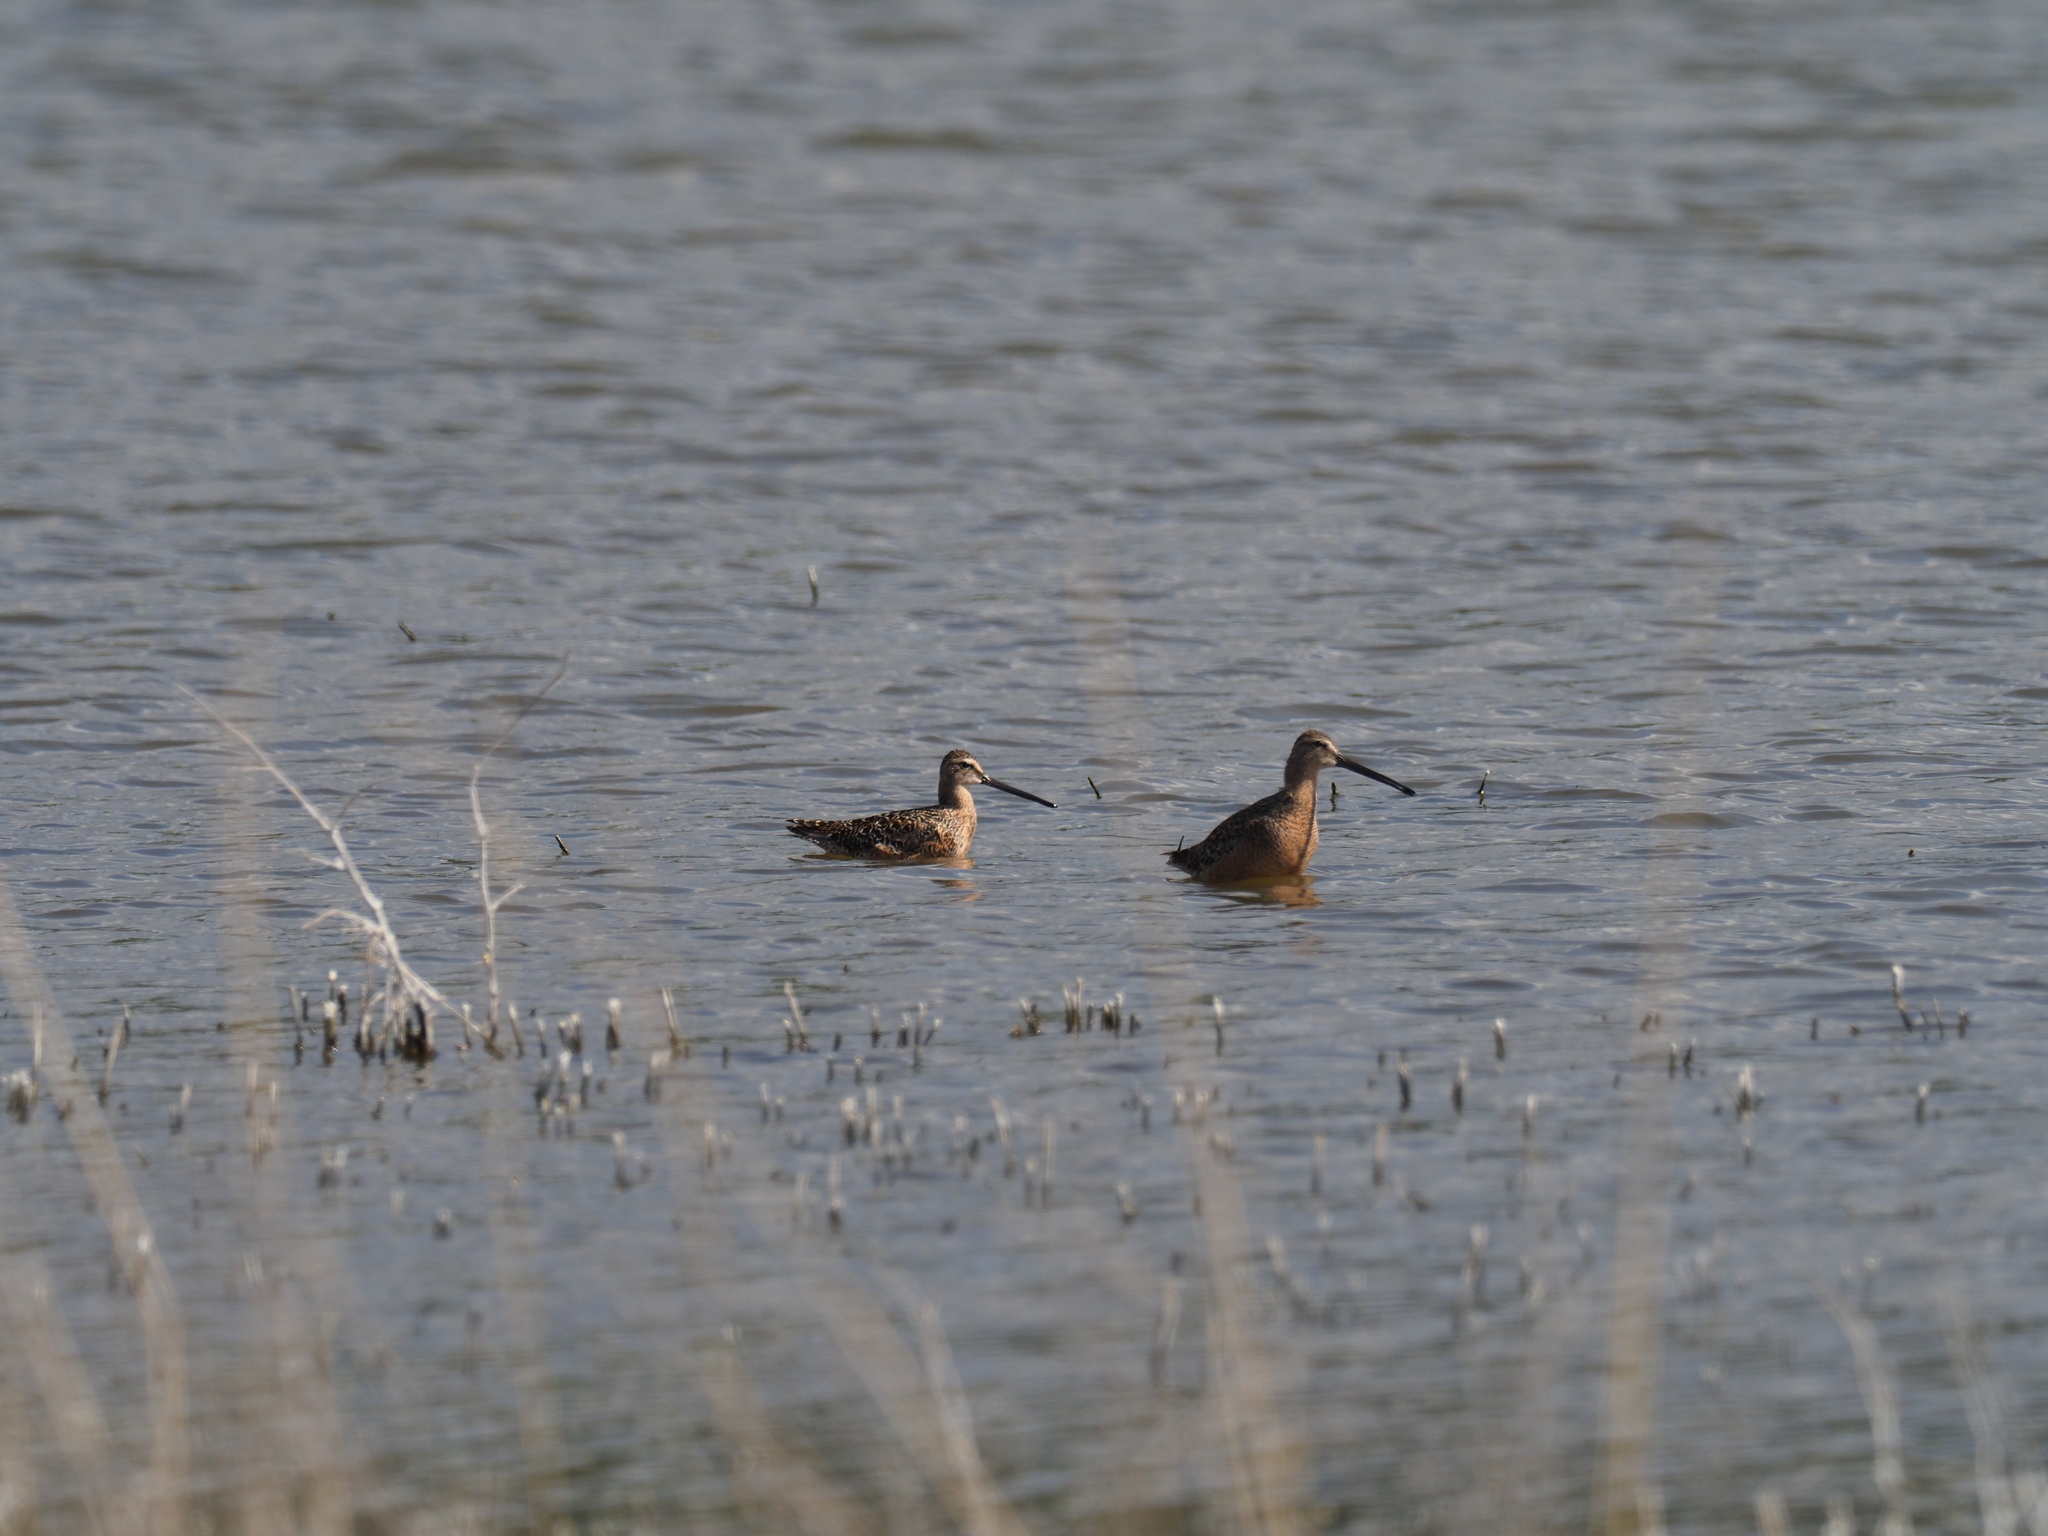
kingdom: Animalia
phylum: Chordata
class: Aves
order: Charadriiformes
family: Scolopacidae
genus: Limnodromus
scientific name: Limnodromus scolopaceus
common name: Long-billed dowitcher
